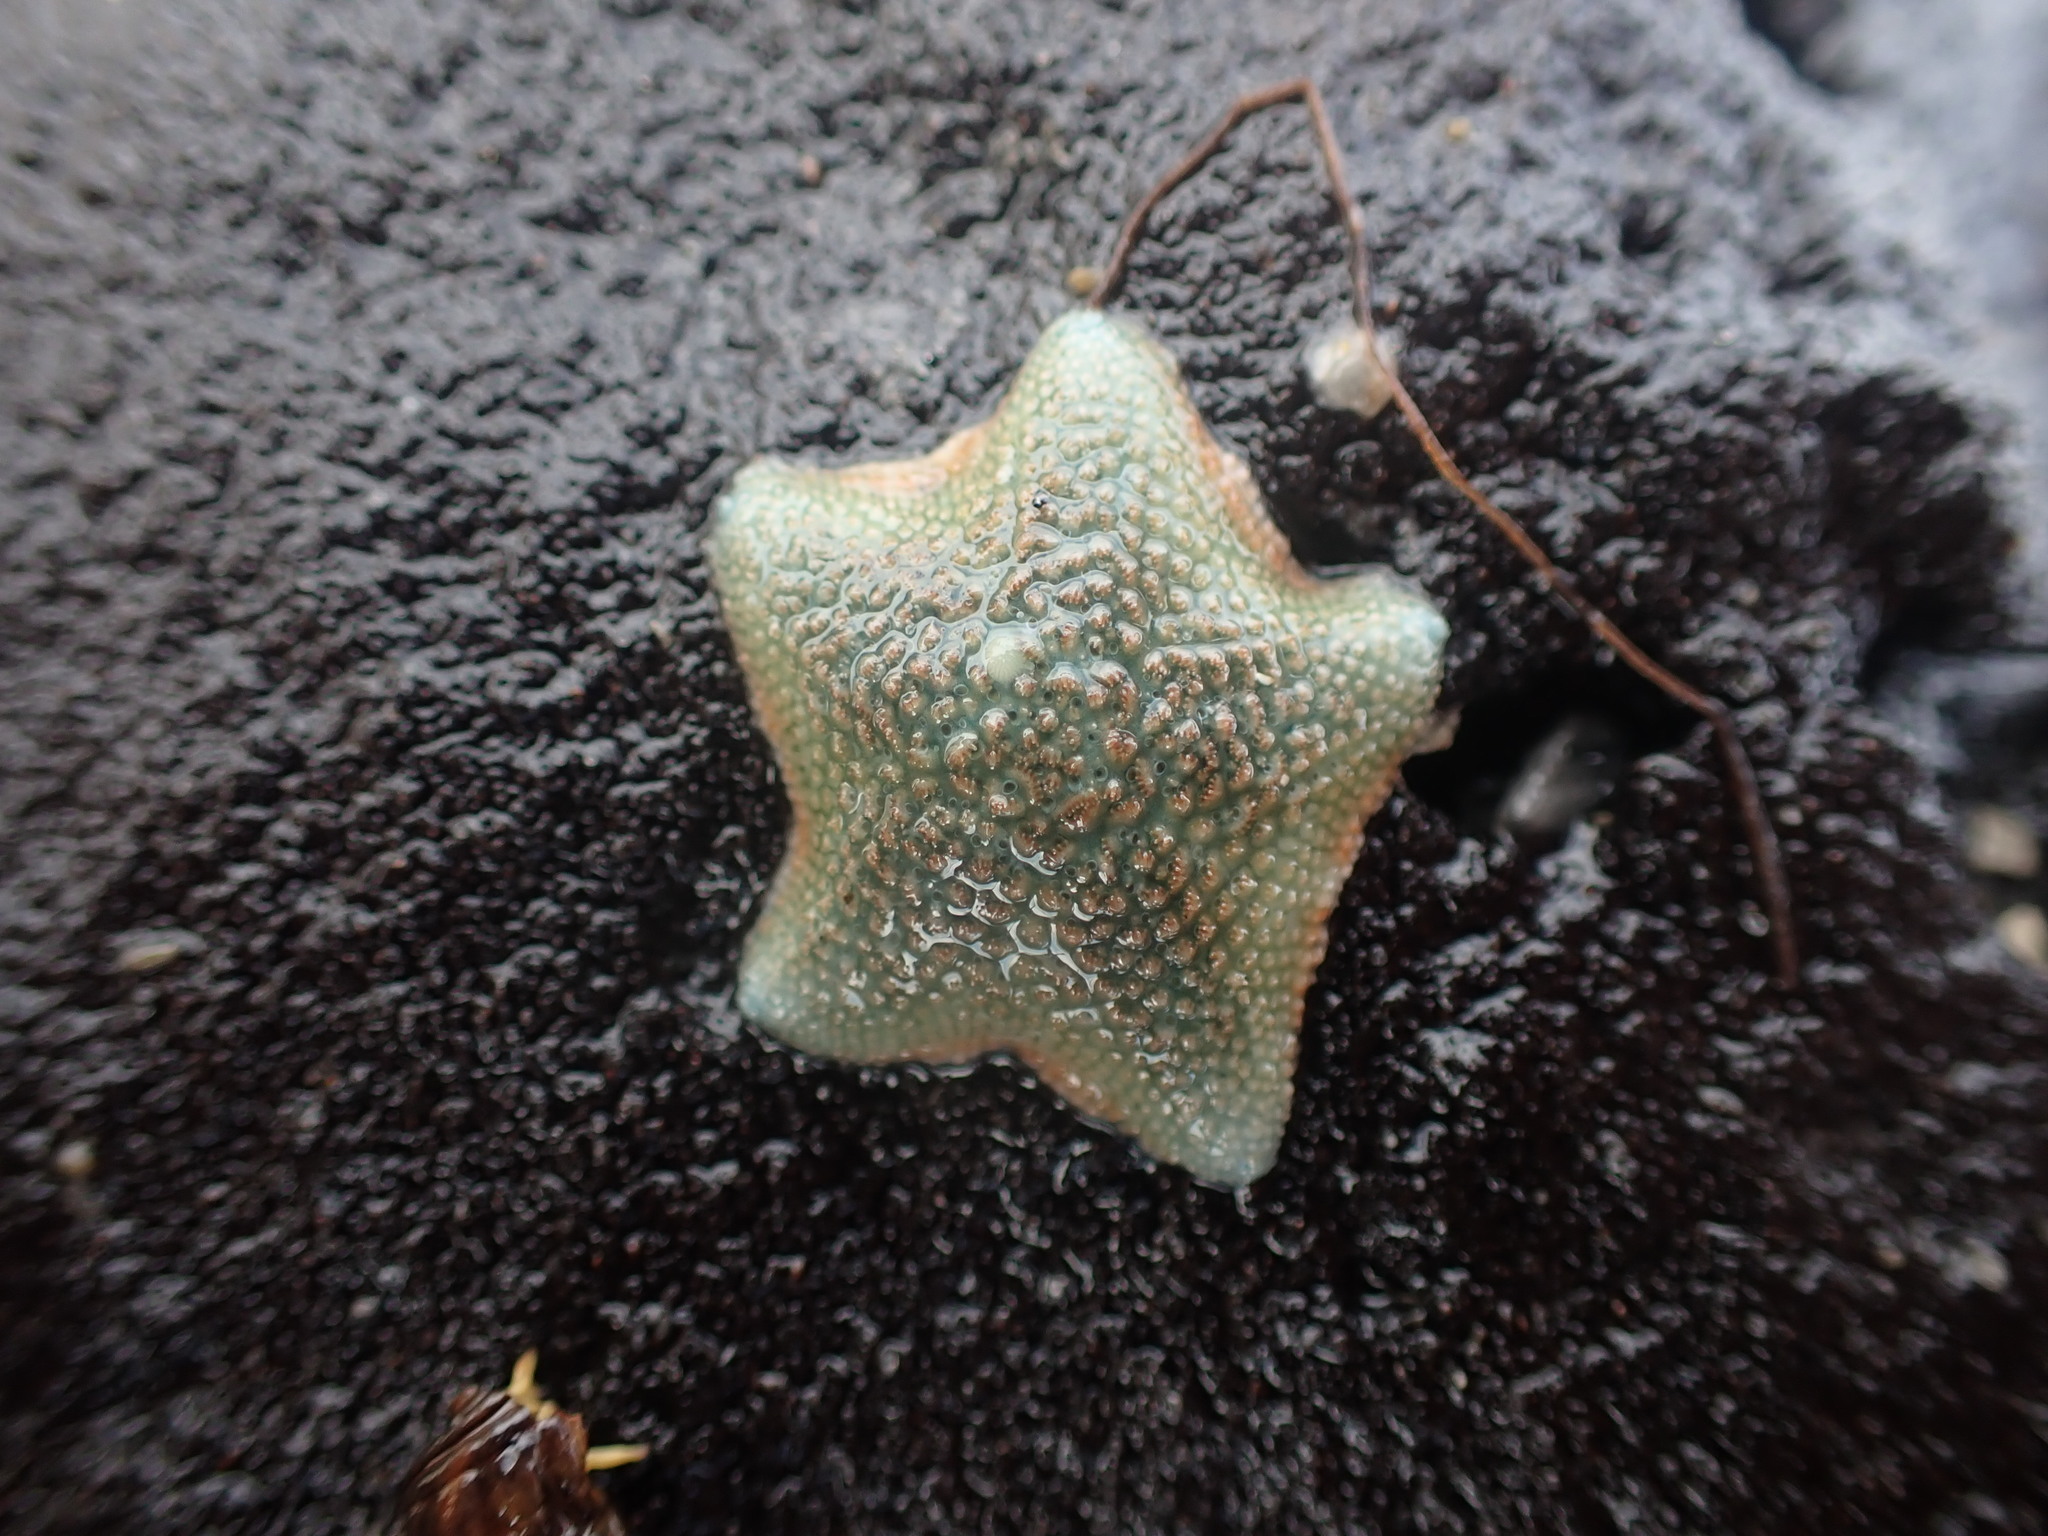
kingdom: Animalia
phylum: Echinodermata
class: Asteroidea
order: Valvatida
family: Asterinidae
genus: Patiriella
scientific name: Patiriella regularis
